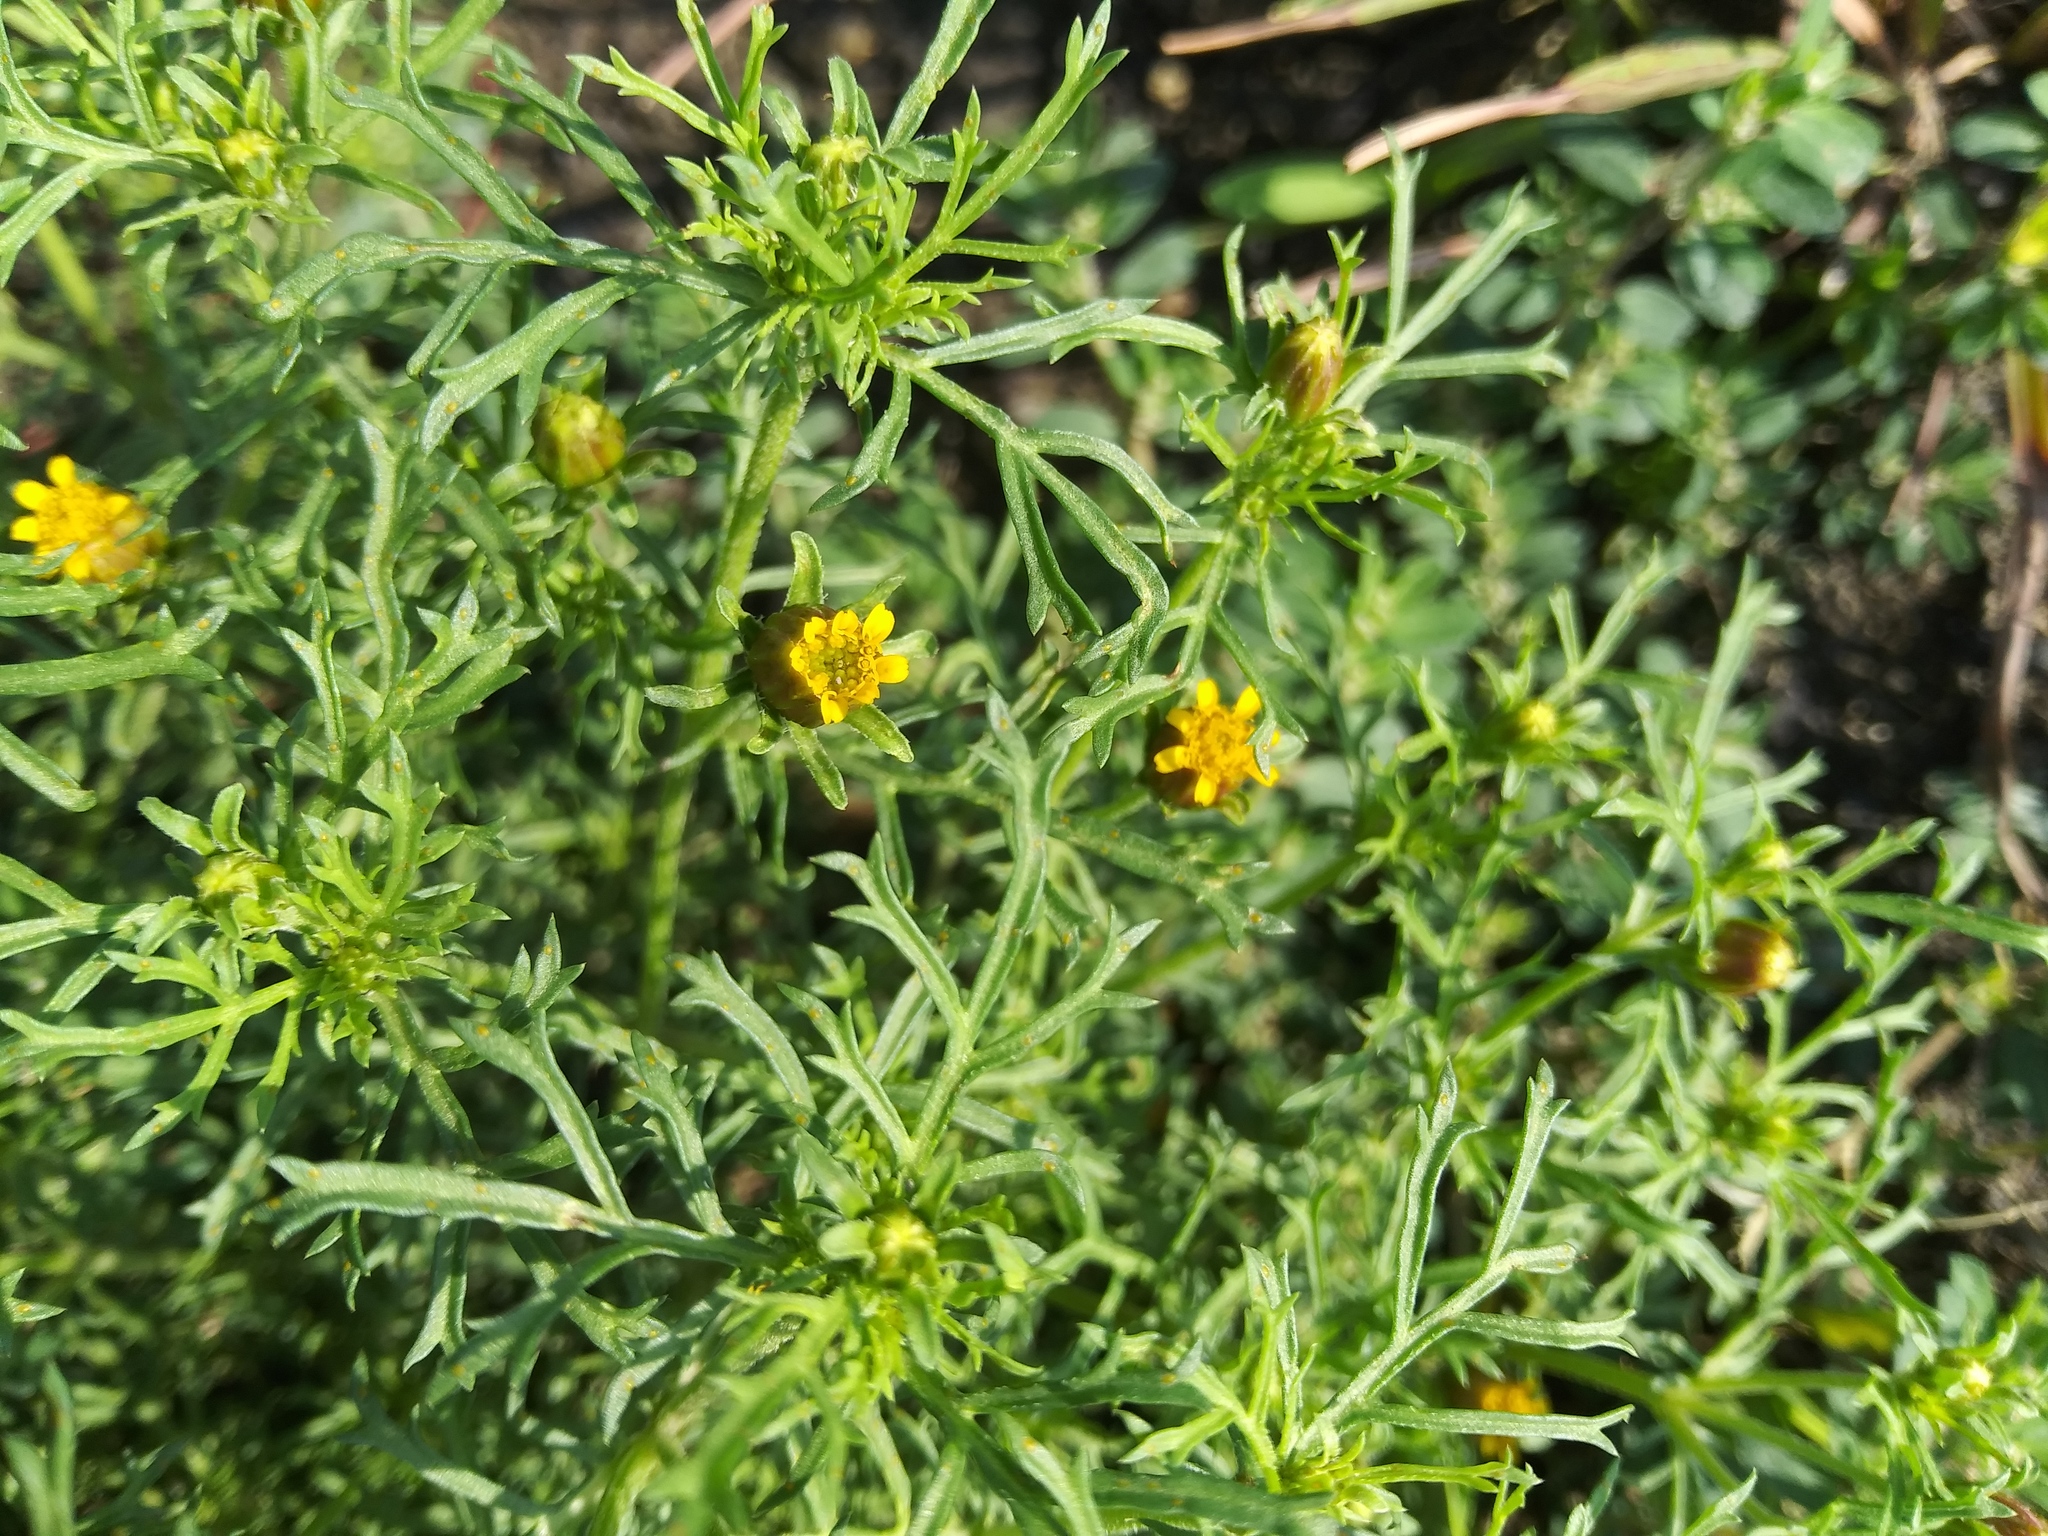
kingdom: Plantae
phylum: Tracheophyta
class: Magnoliopsida
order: Asterales
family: Asteraceae
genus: Dyssodia
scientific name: Dyssodia papposa
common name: Dogweed
